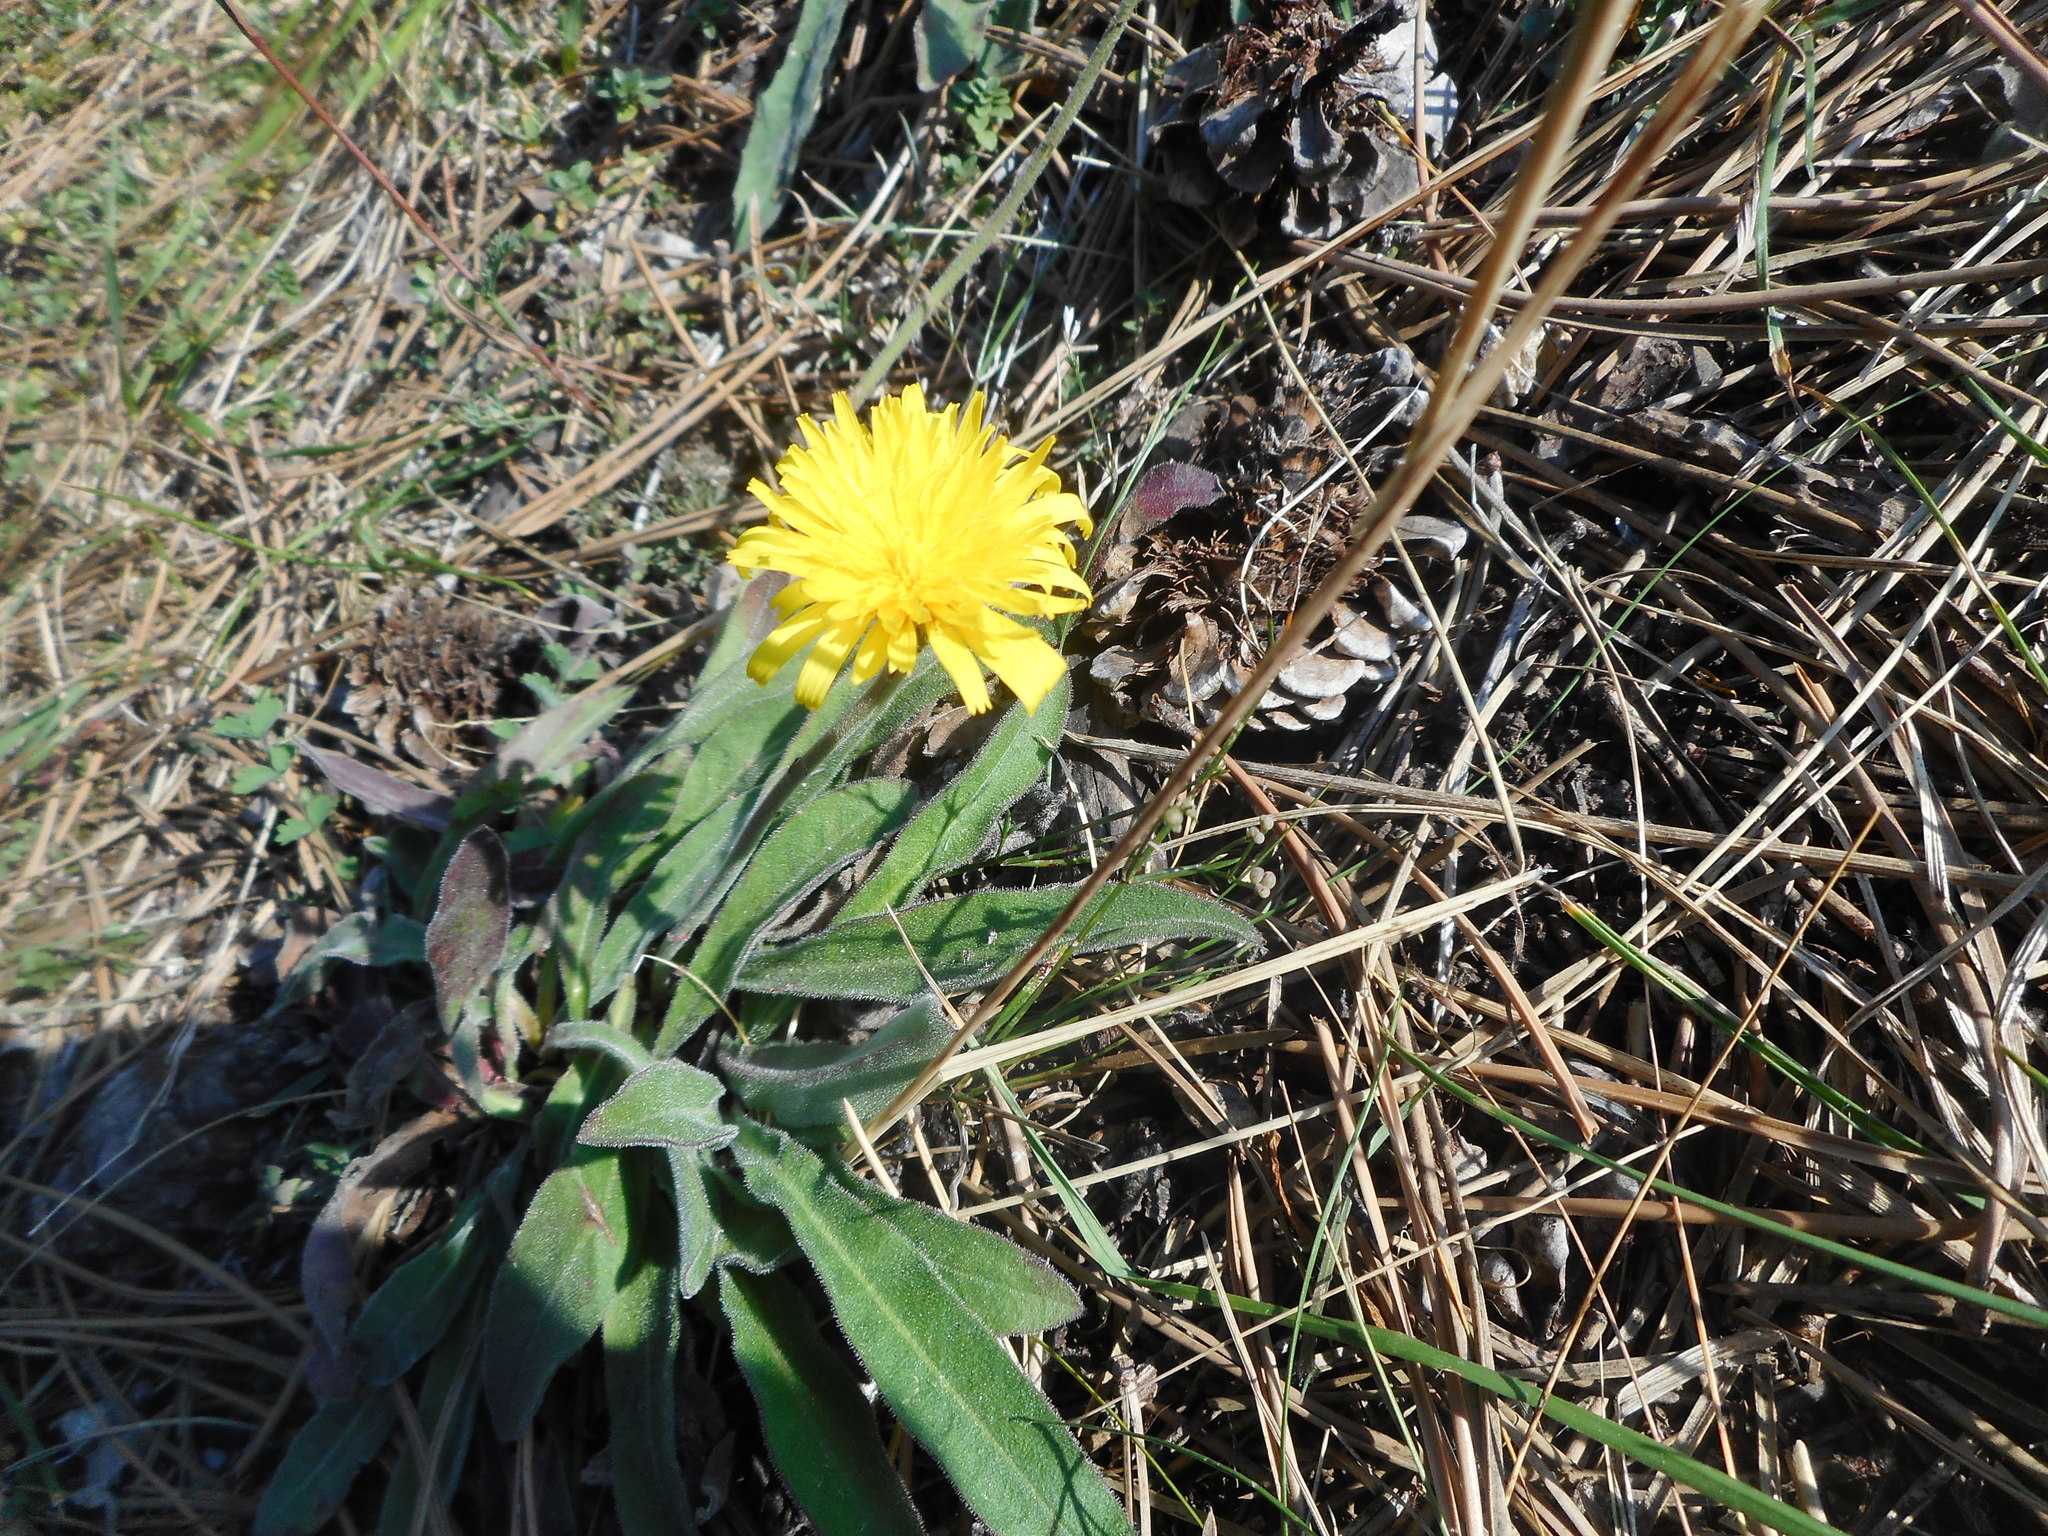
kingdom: Plantae
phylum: Tracheophyta
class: Magnoliopsida
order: Asterales
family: Asteraceae
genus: Leontodon
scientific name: Leontodon incanus
